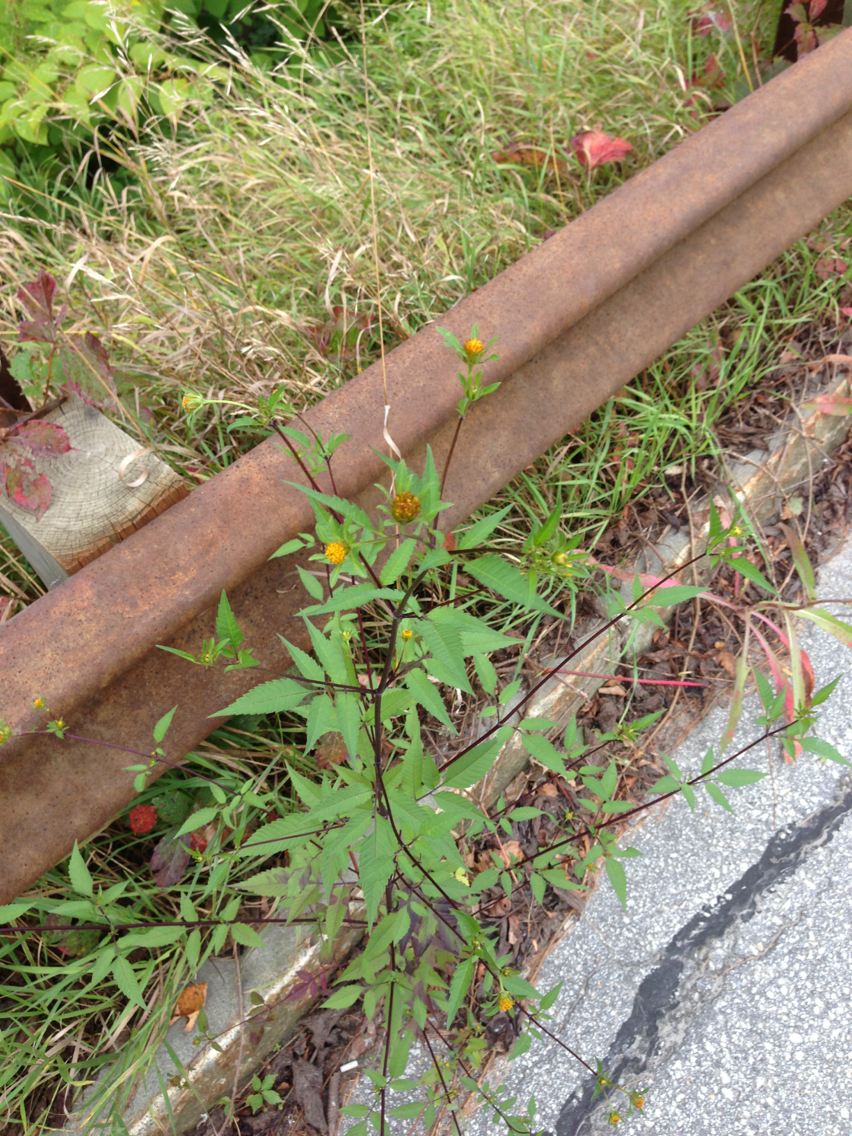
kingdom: Plantae
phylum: Tracheophyta
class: Magnoliopsida
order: Asterales
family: Asteraceae
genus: Bidens
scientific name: Bidens frondosa
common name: Beggarticks
